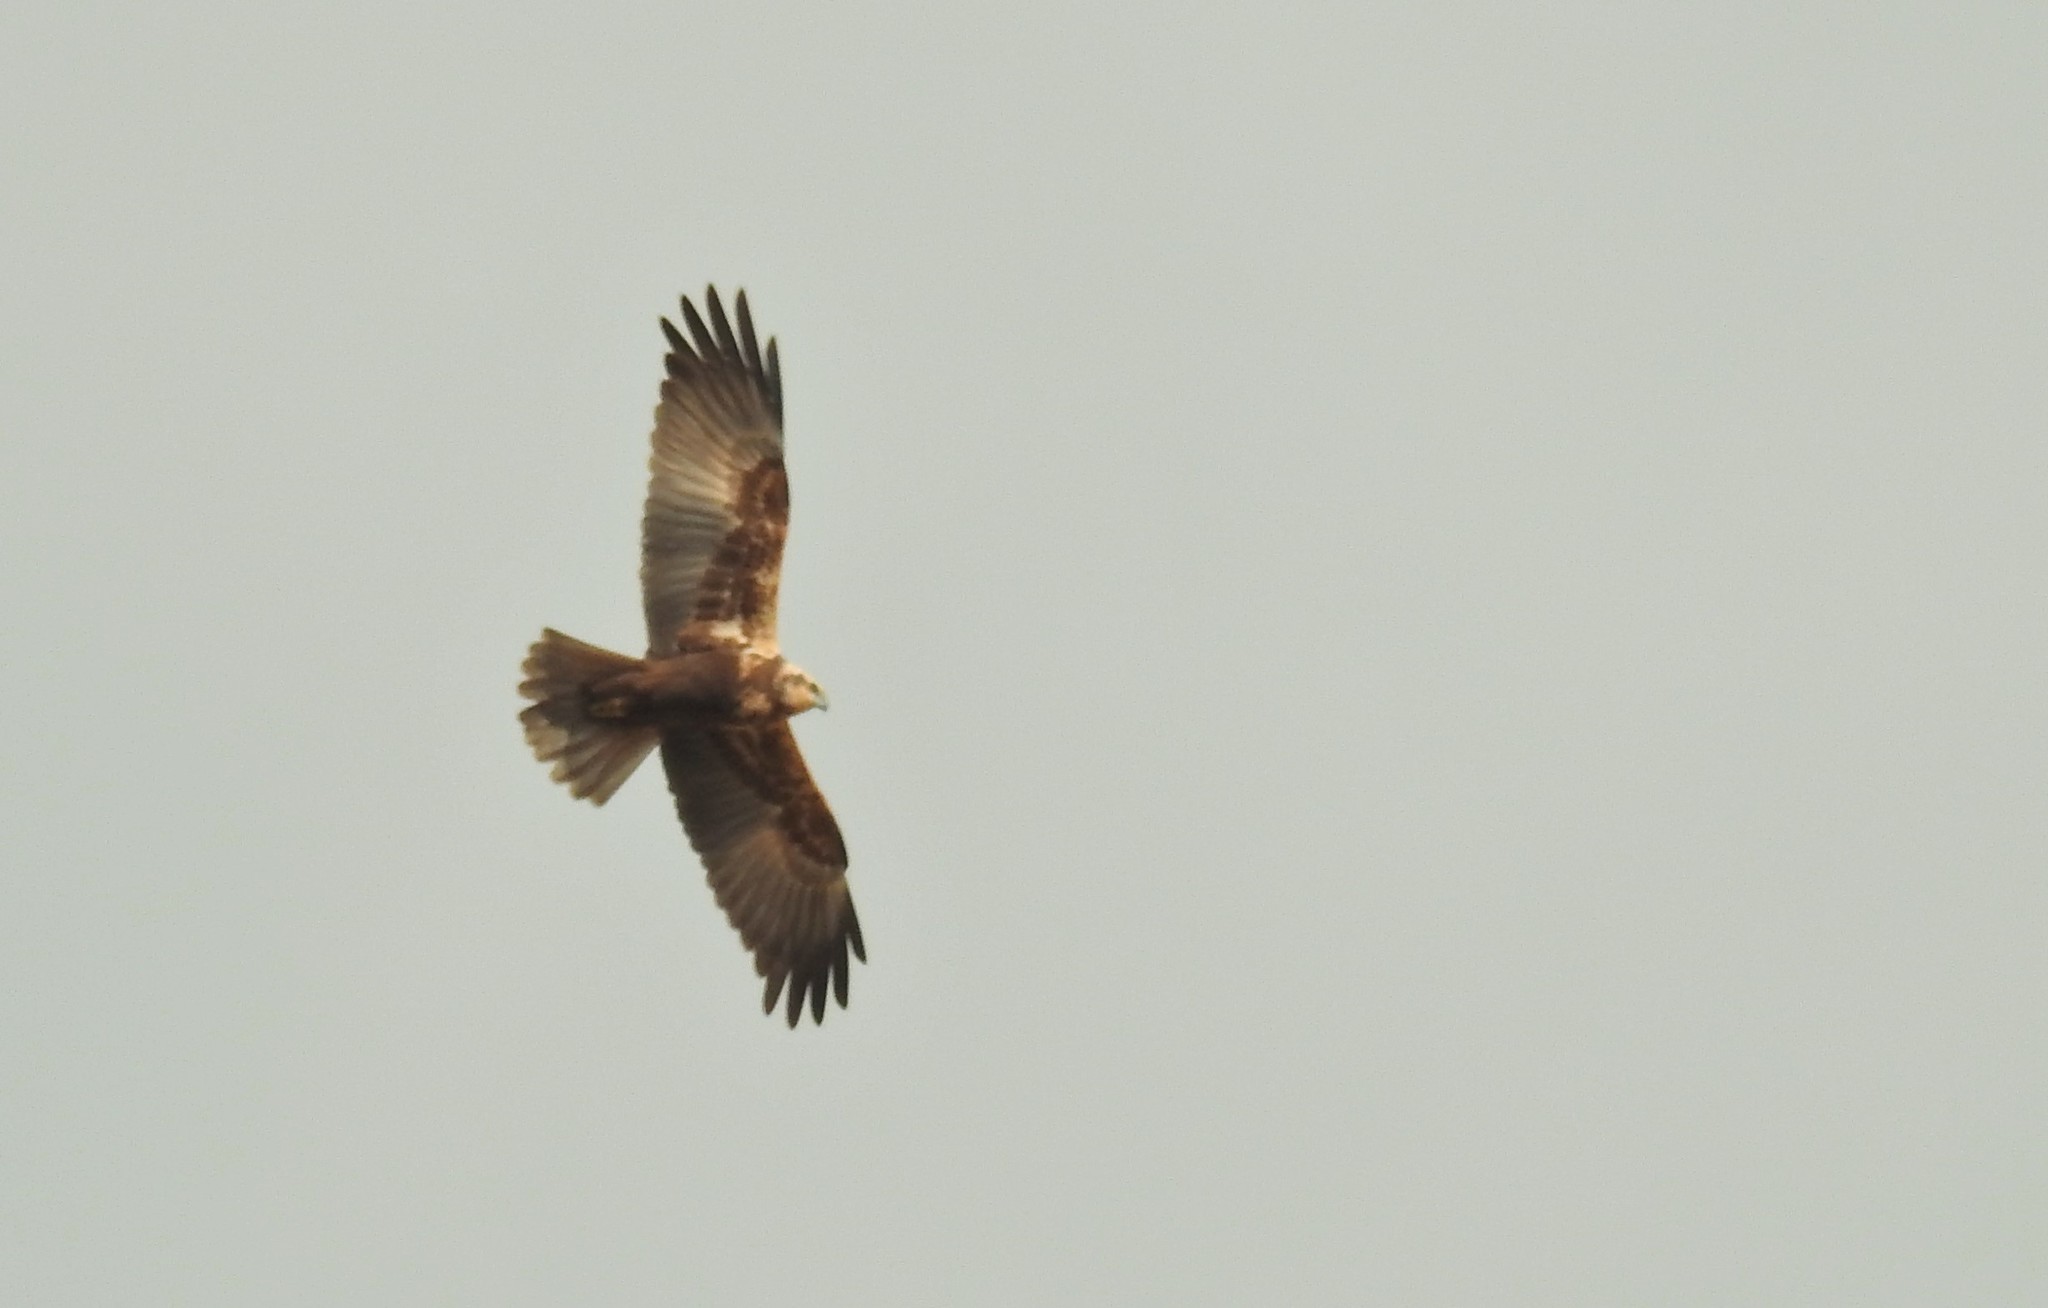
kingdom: Animalia
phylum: Chordata
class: Aves
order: Accipitriformes
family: Accipitridae
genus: Circus
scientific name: Circus aeruginosus
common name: Western marsh harrier
